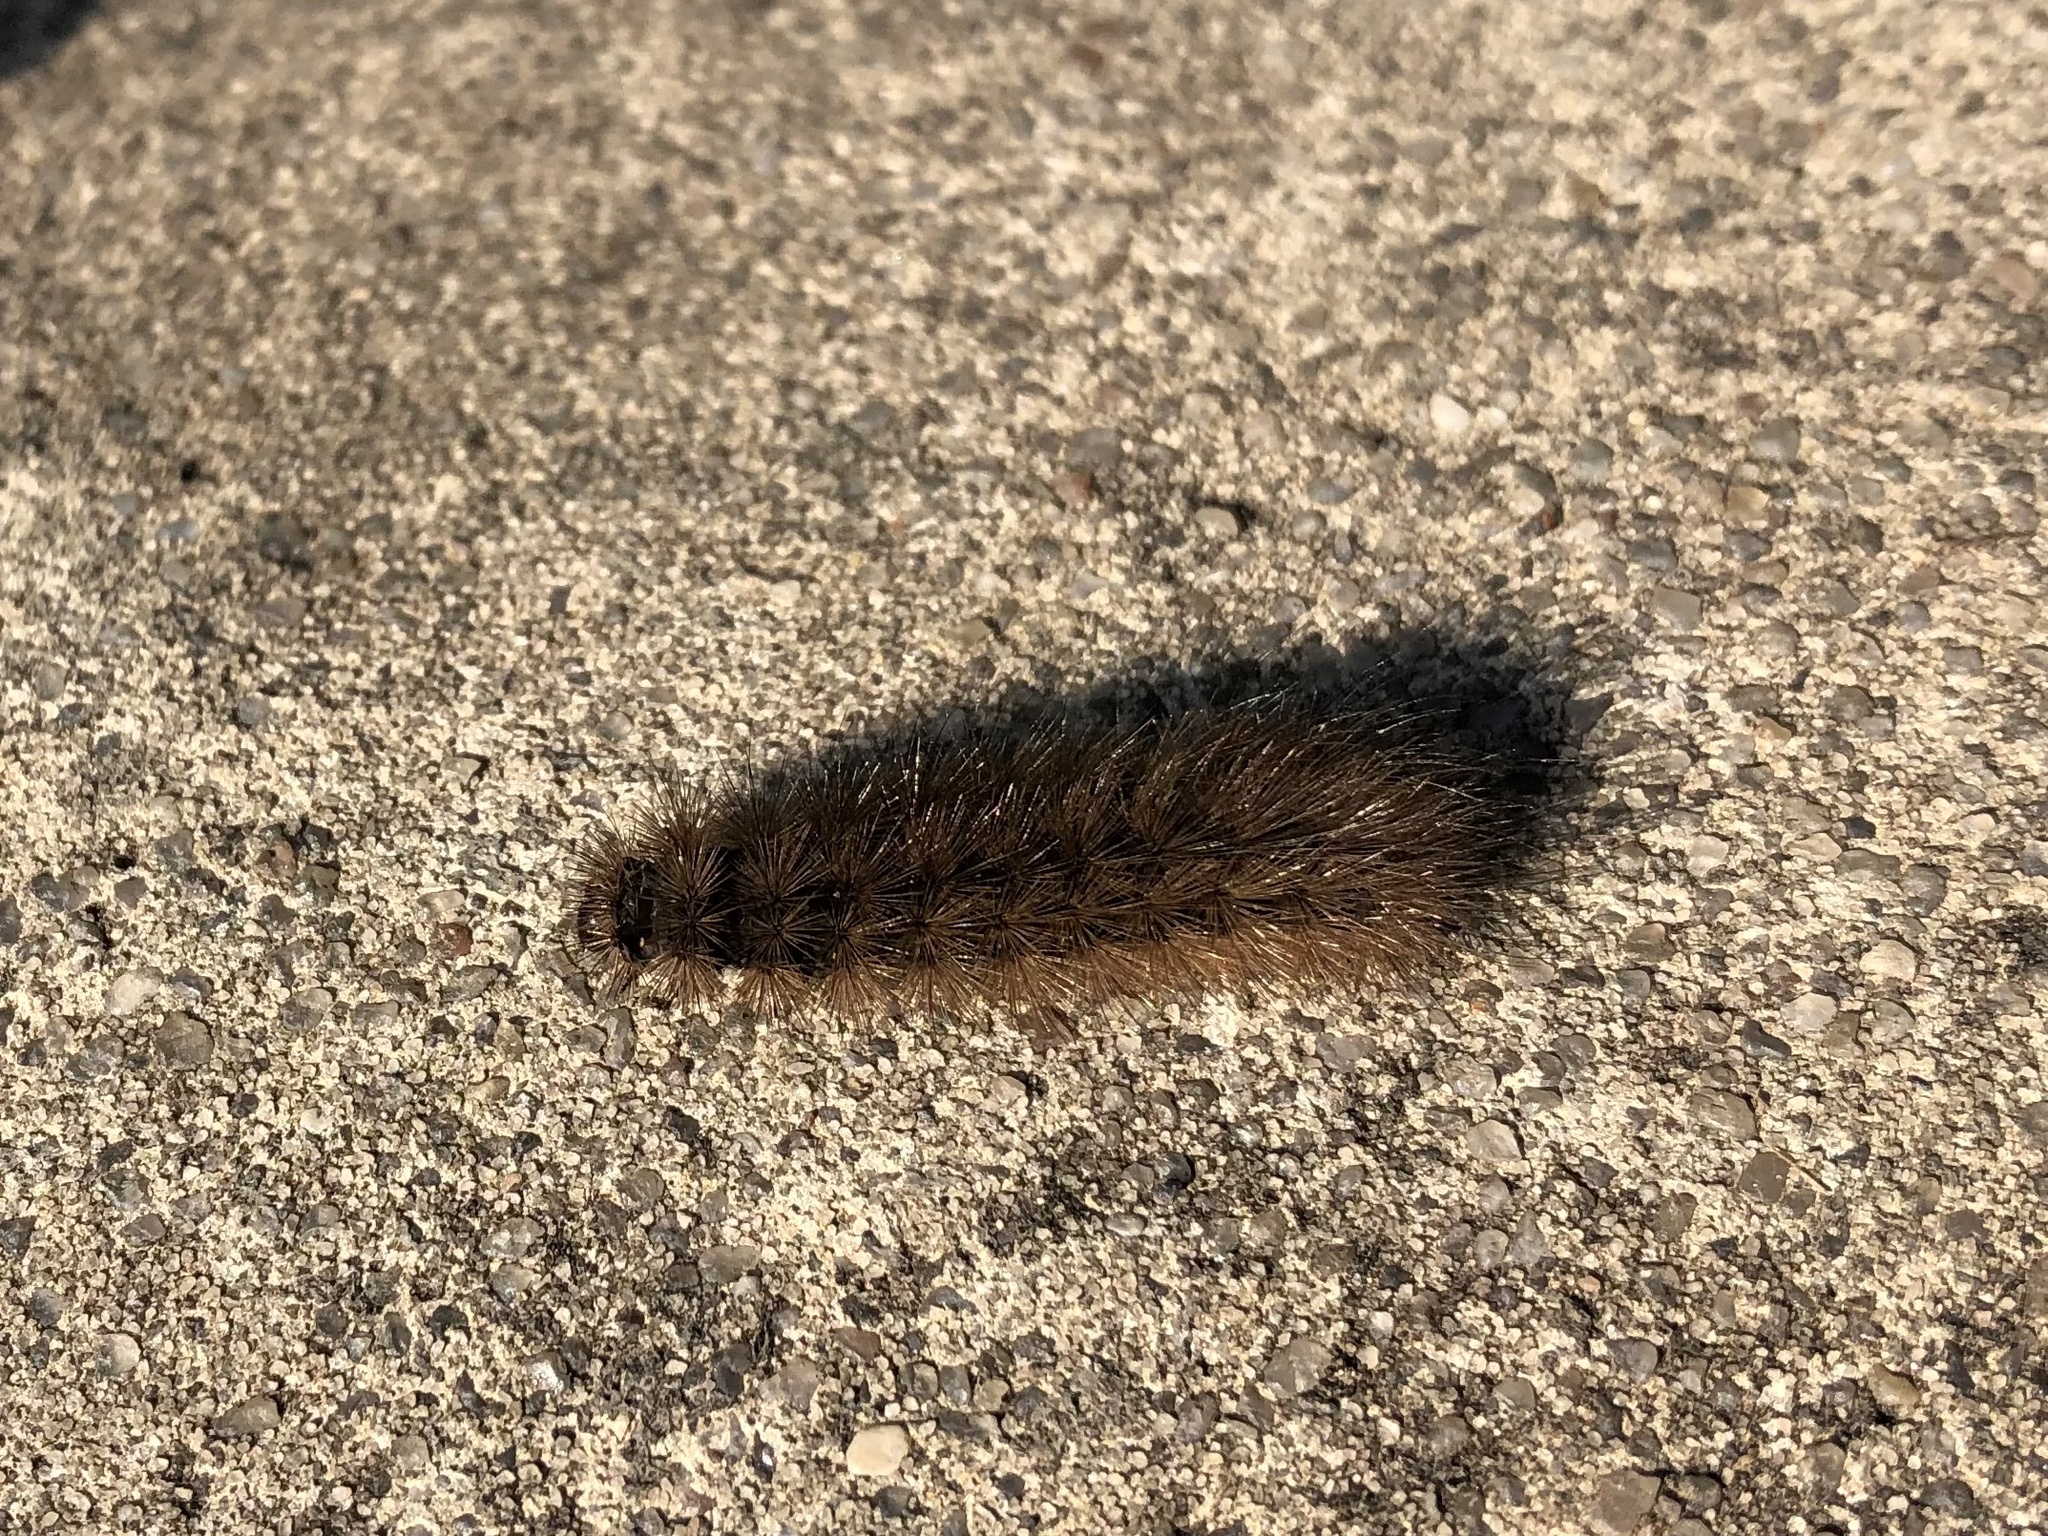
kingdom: Animalia
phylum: Arthropoda
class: Insecta
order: Lepidoptera
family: Erebidae
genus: Phragmatobia
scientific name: Phragmatobia fuliginosa
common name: Ruby tiger
